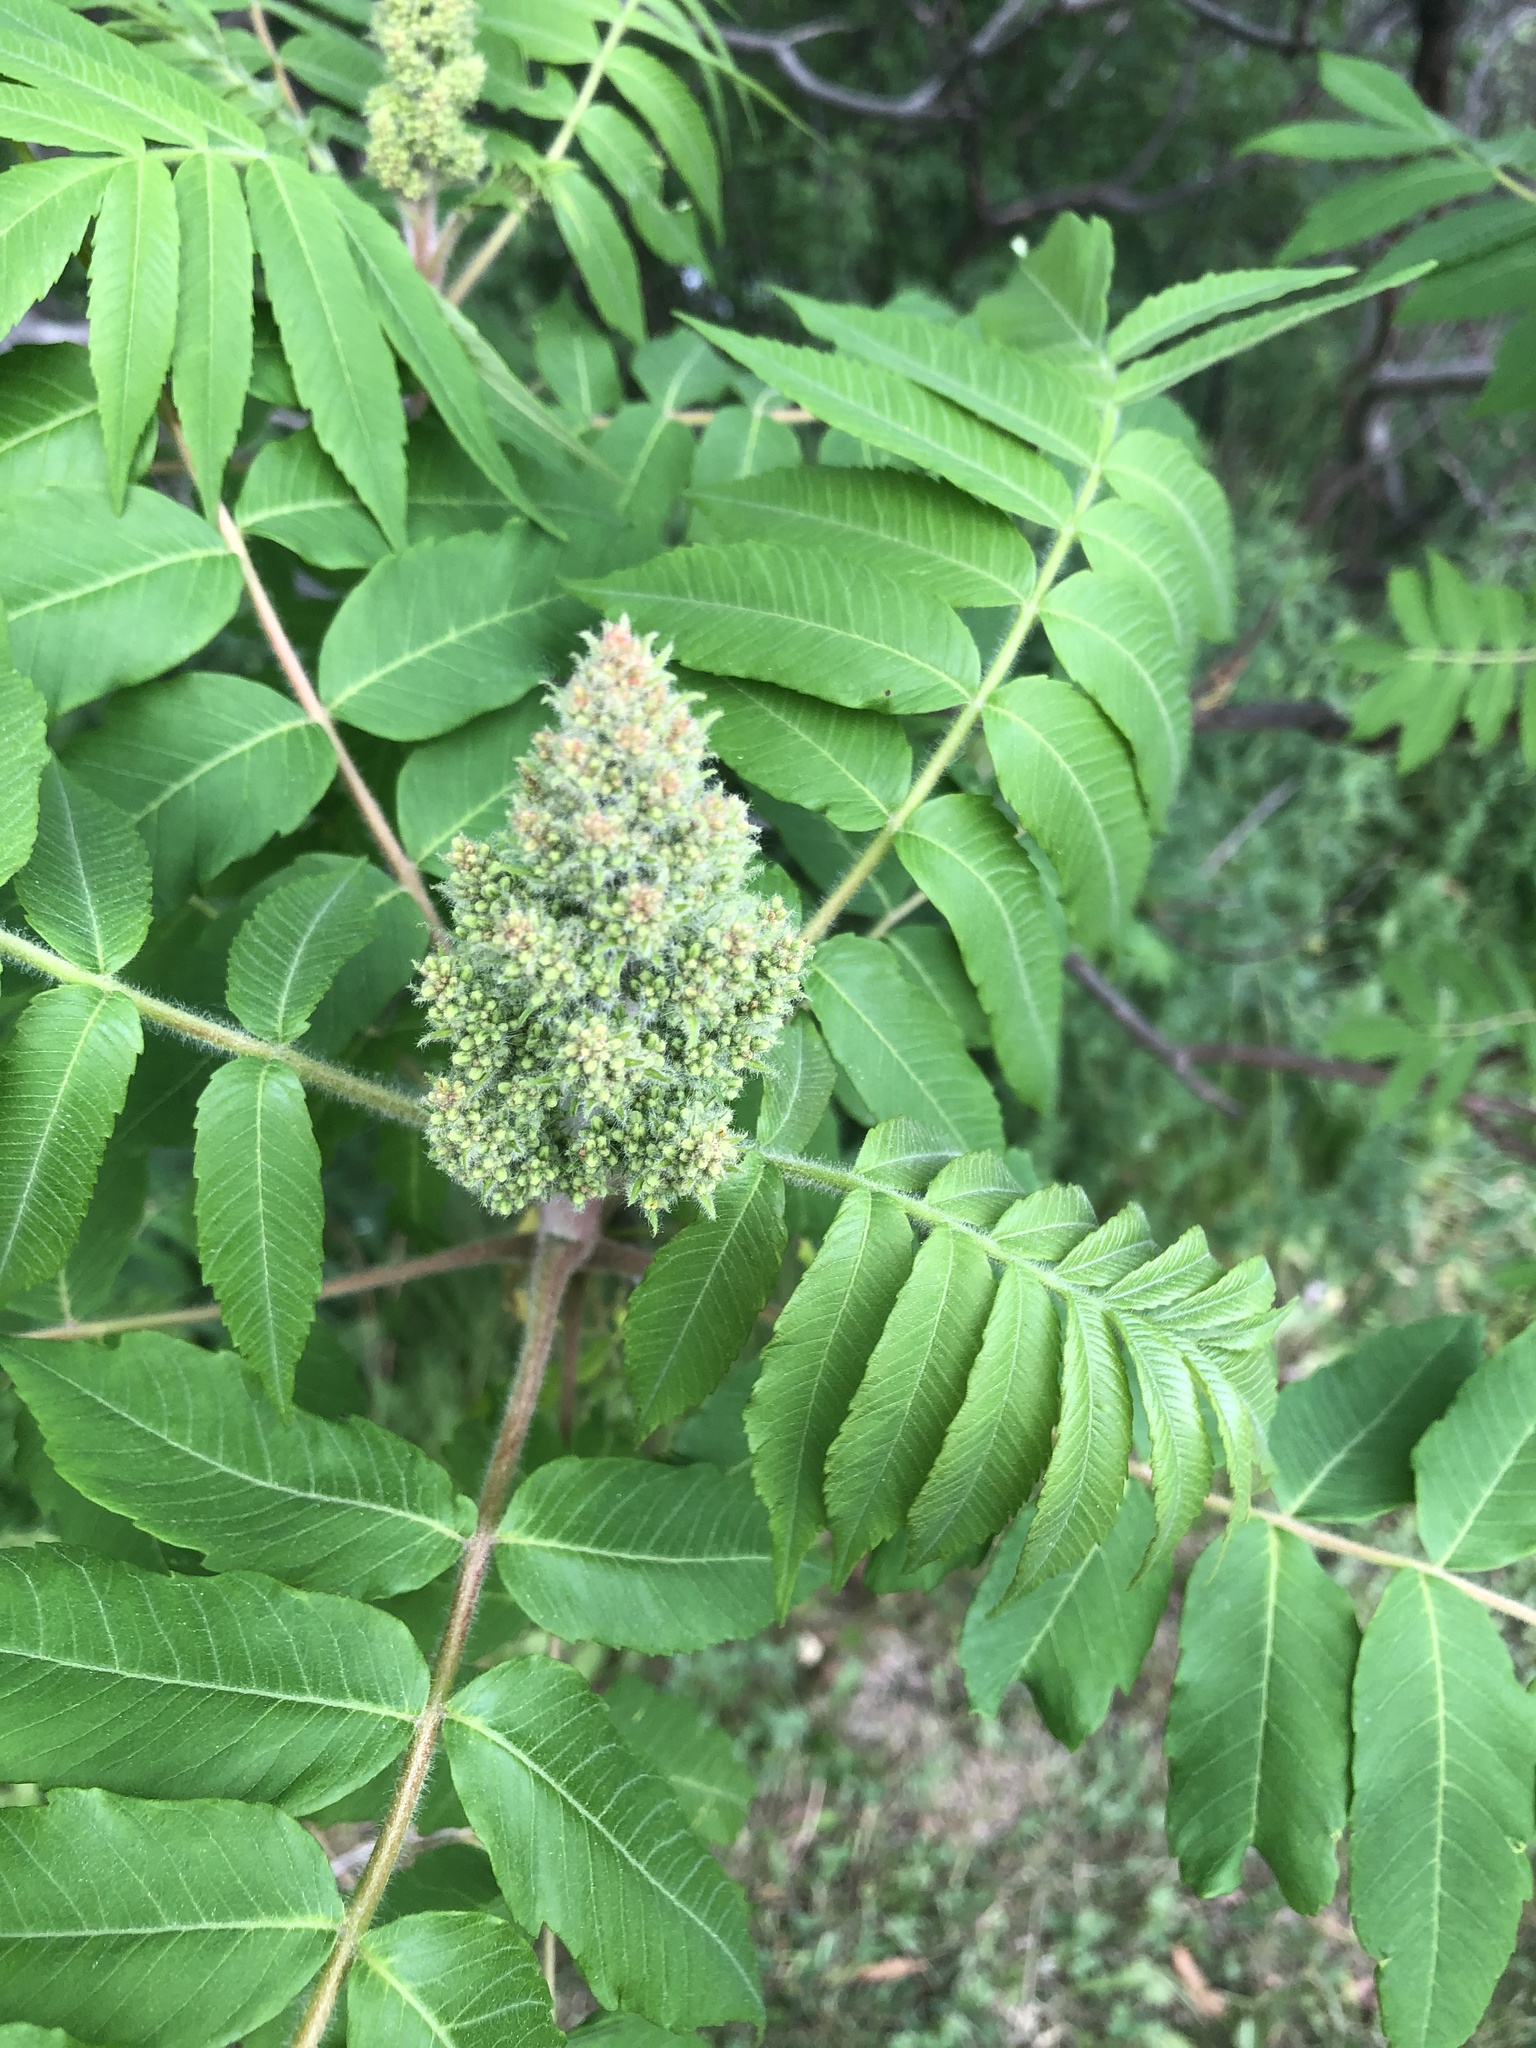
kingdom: Plantae
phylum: Tracheophyta
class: Magnoliopsida
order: Sapindales
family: Anacardiaceae
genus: Rhus
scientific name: Rhus typhina
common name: Staghorn sumac
